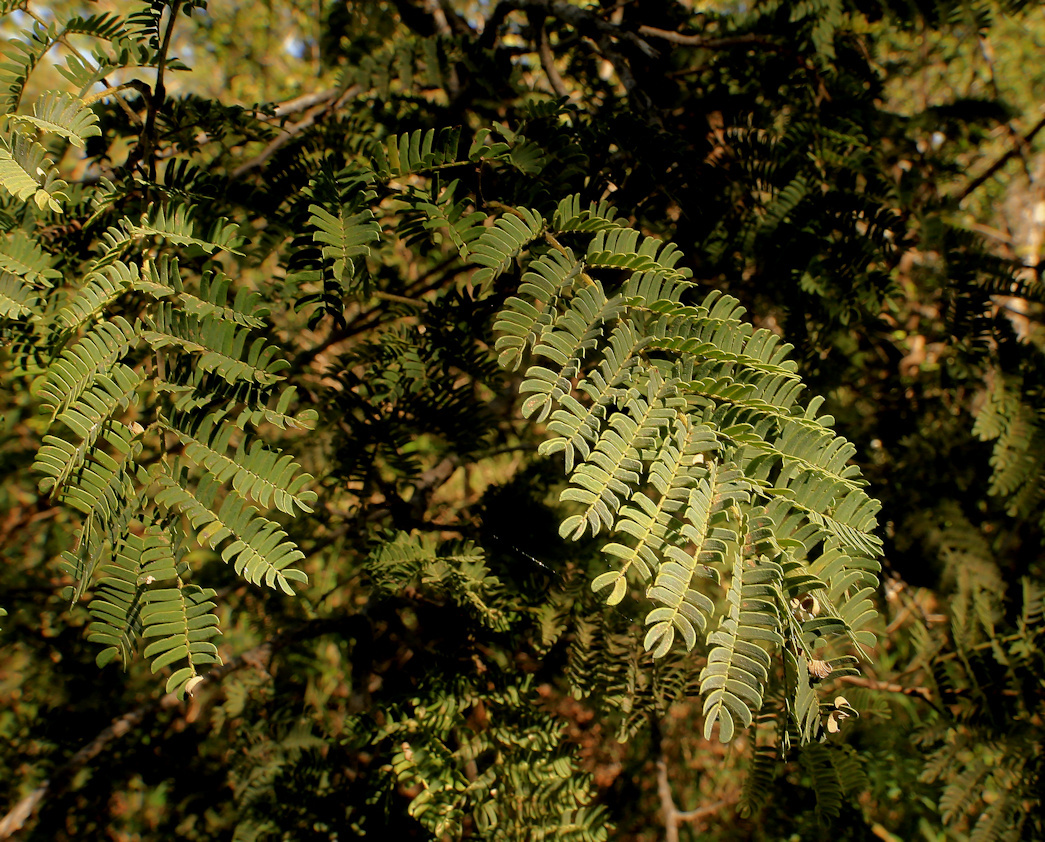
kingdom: Plantae
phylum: Tracheophyta
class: Magnoliopsida
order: Fabales
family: Fabaceae
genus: Albizia
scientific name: Albizia harveyi
